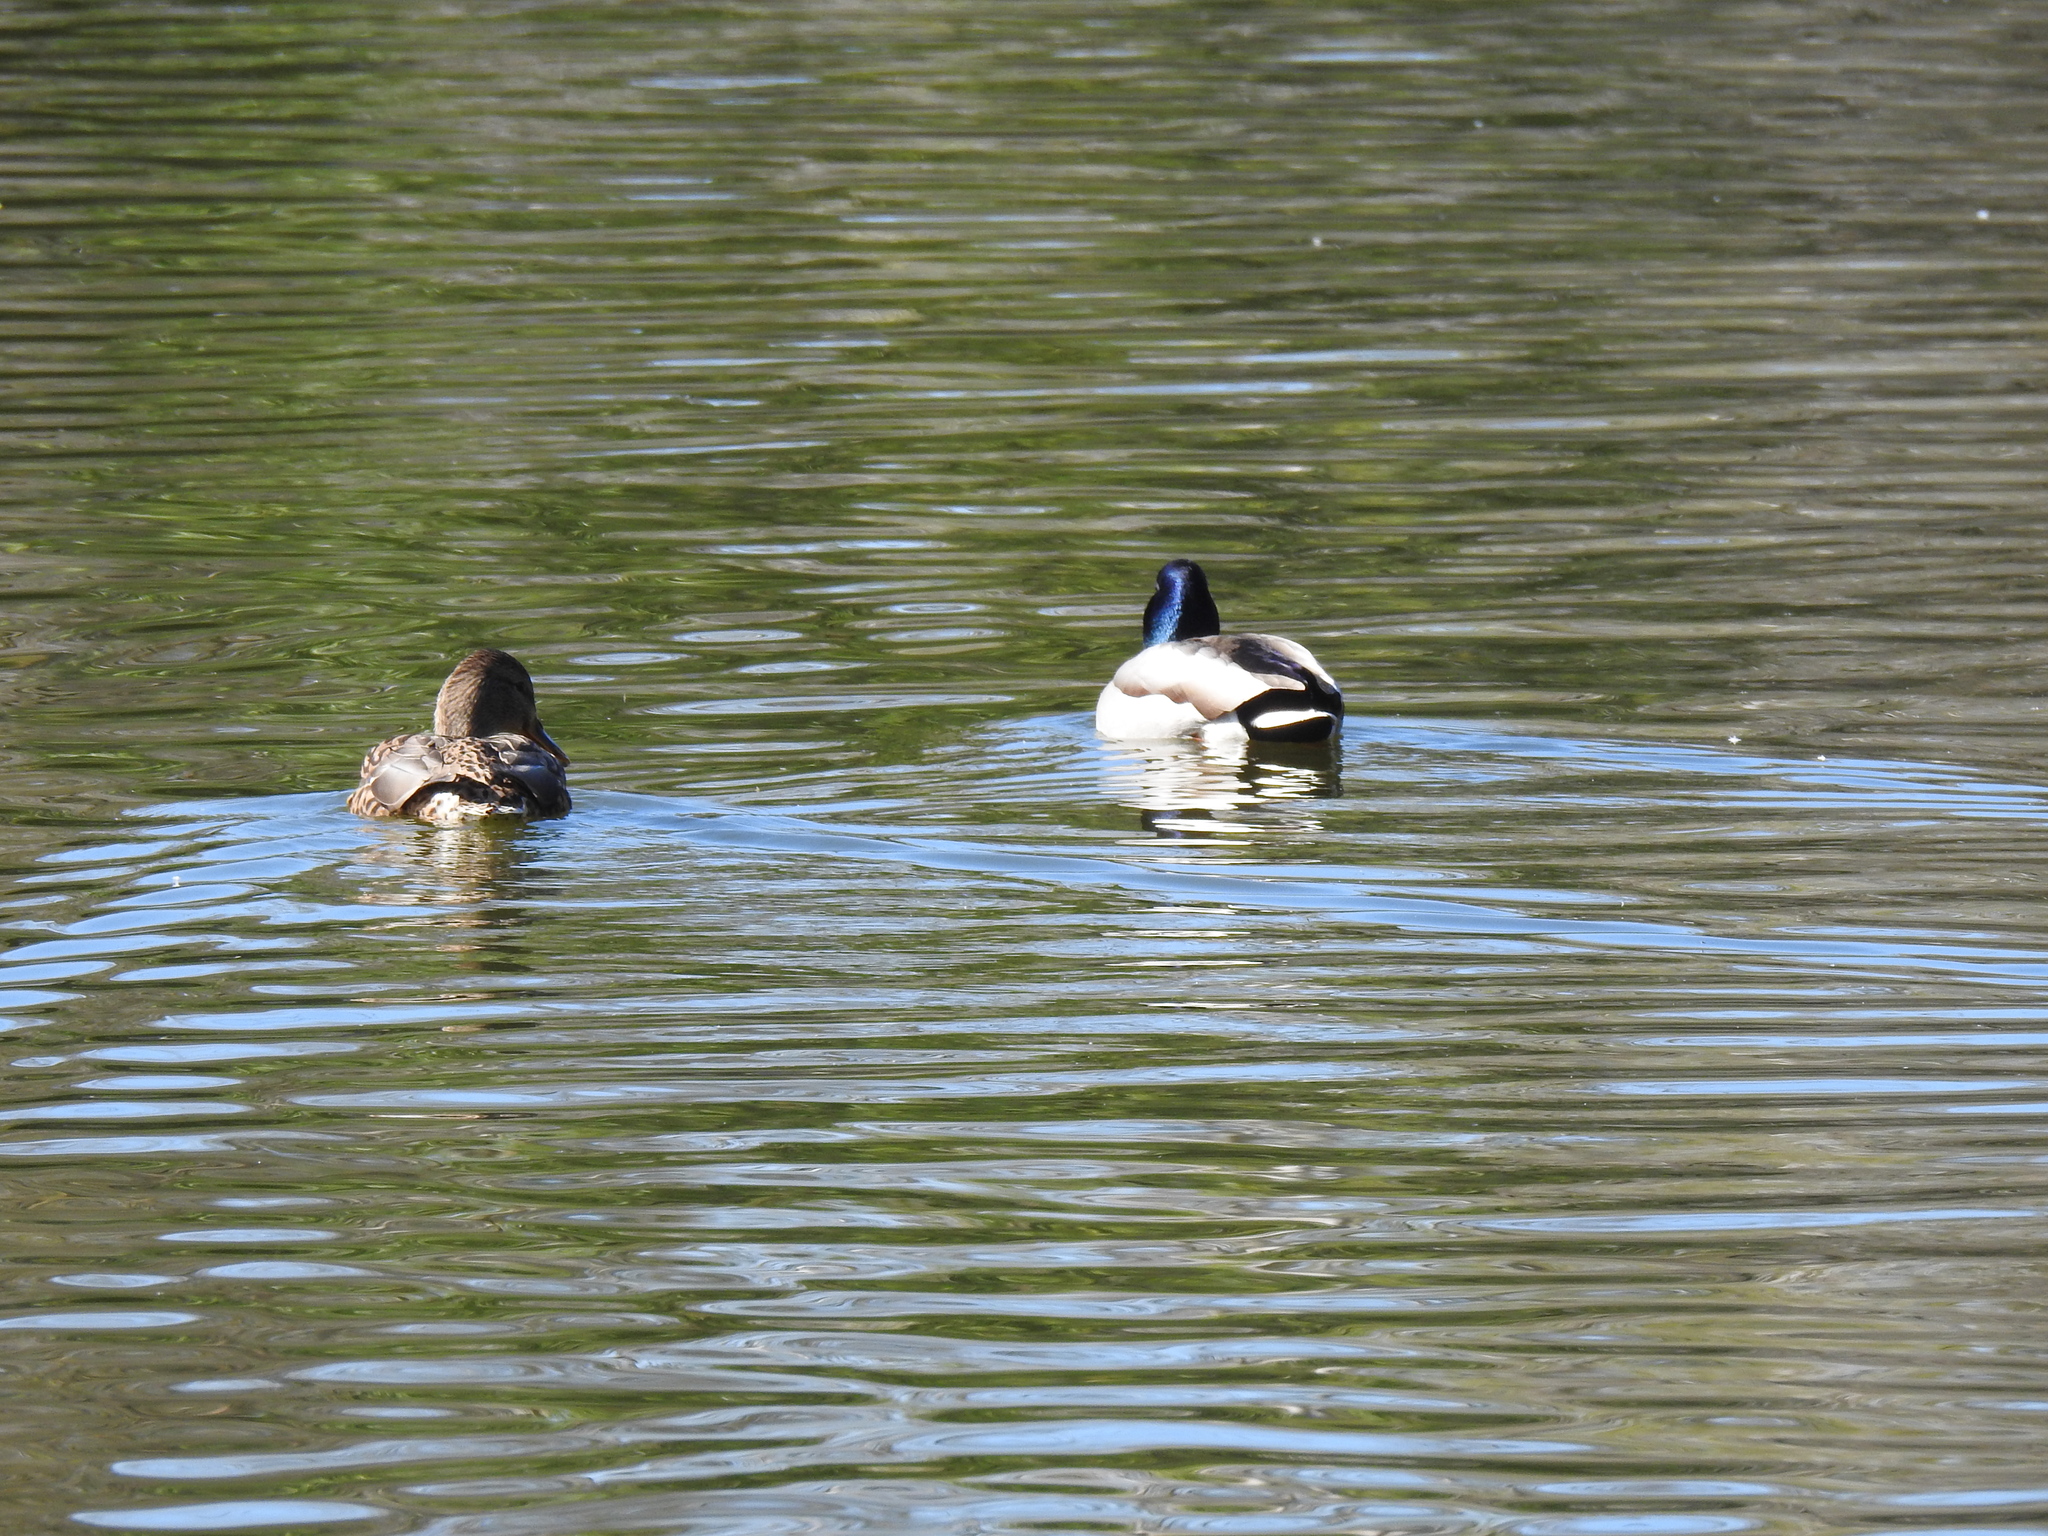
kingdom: Animalia
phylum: Chordata
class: Aves
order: Anseriformes
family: Anatidae
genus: Anas
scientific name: Anas platyrhynchos
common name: Mallard
